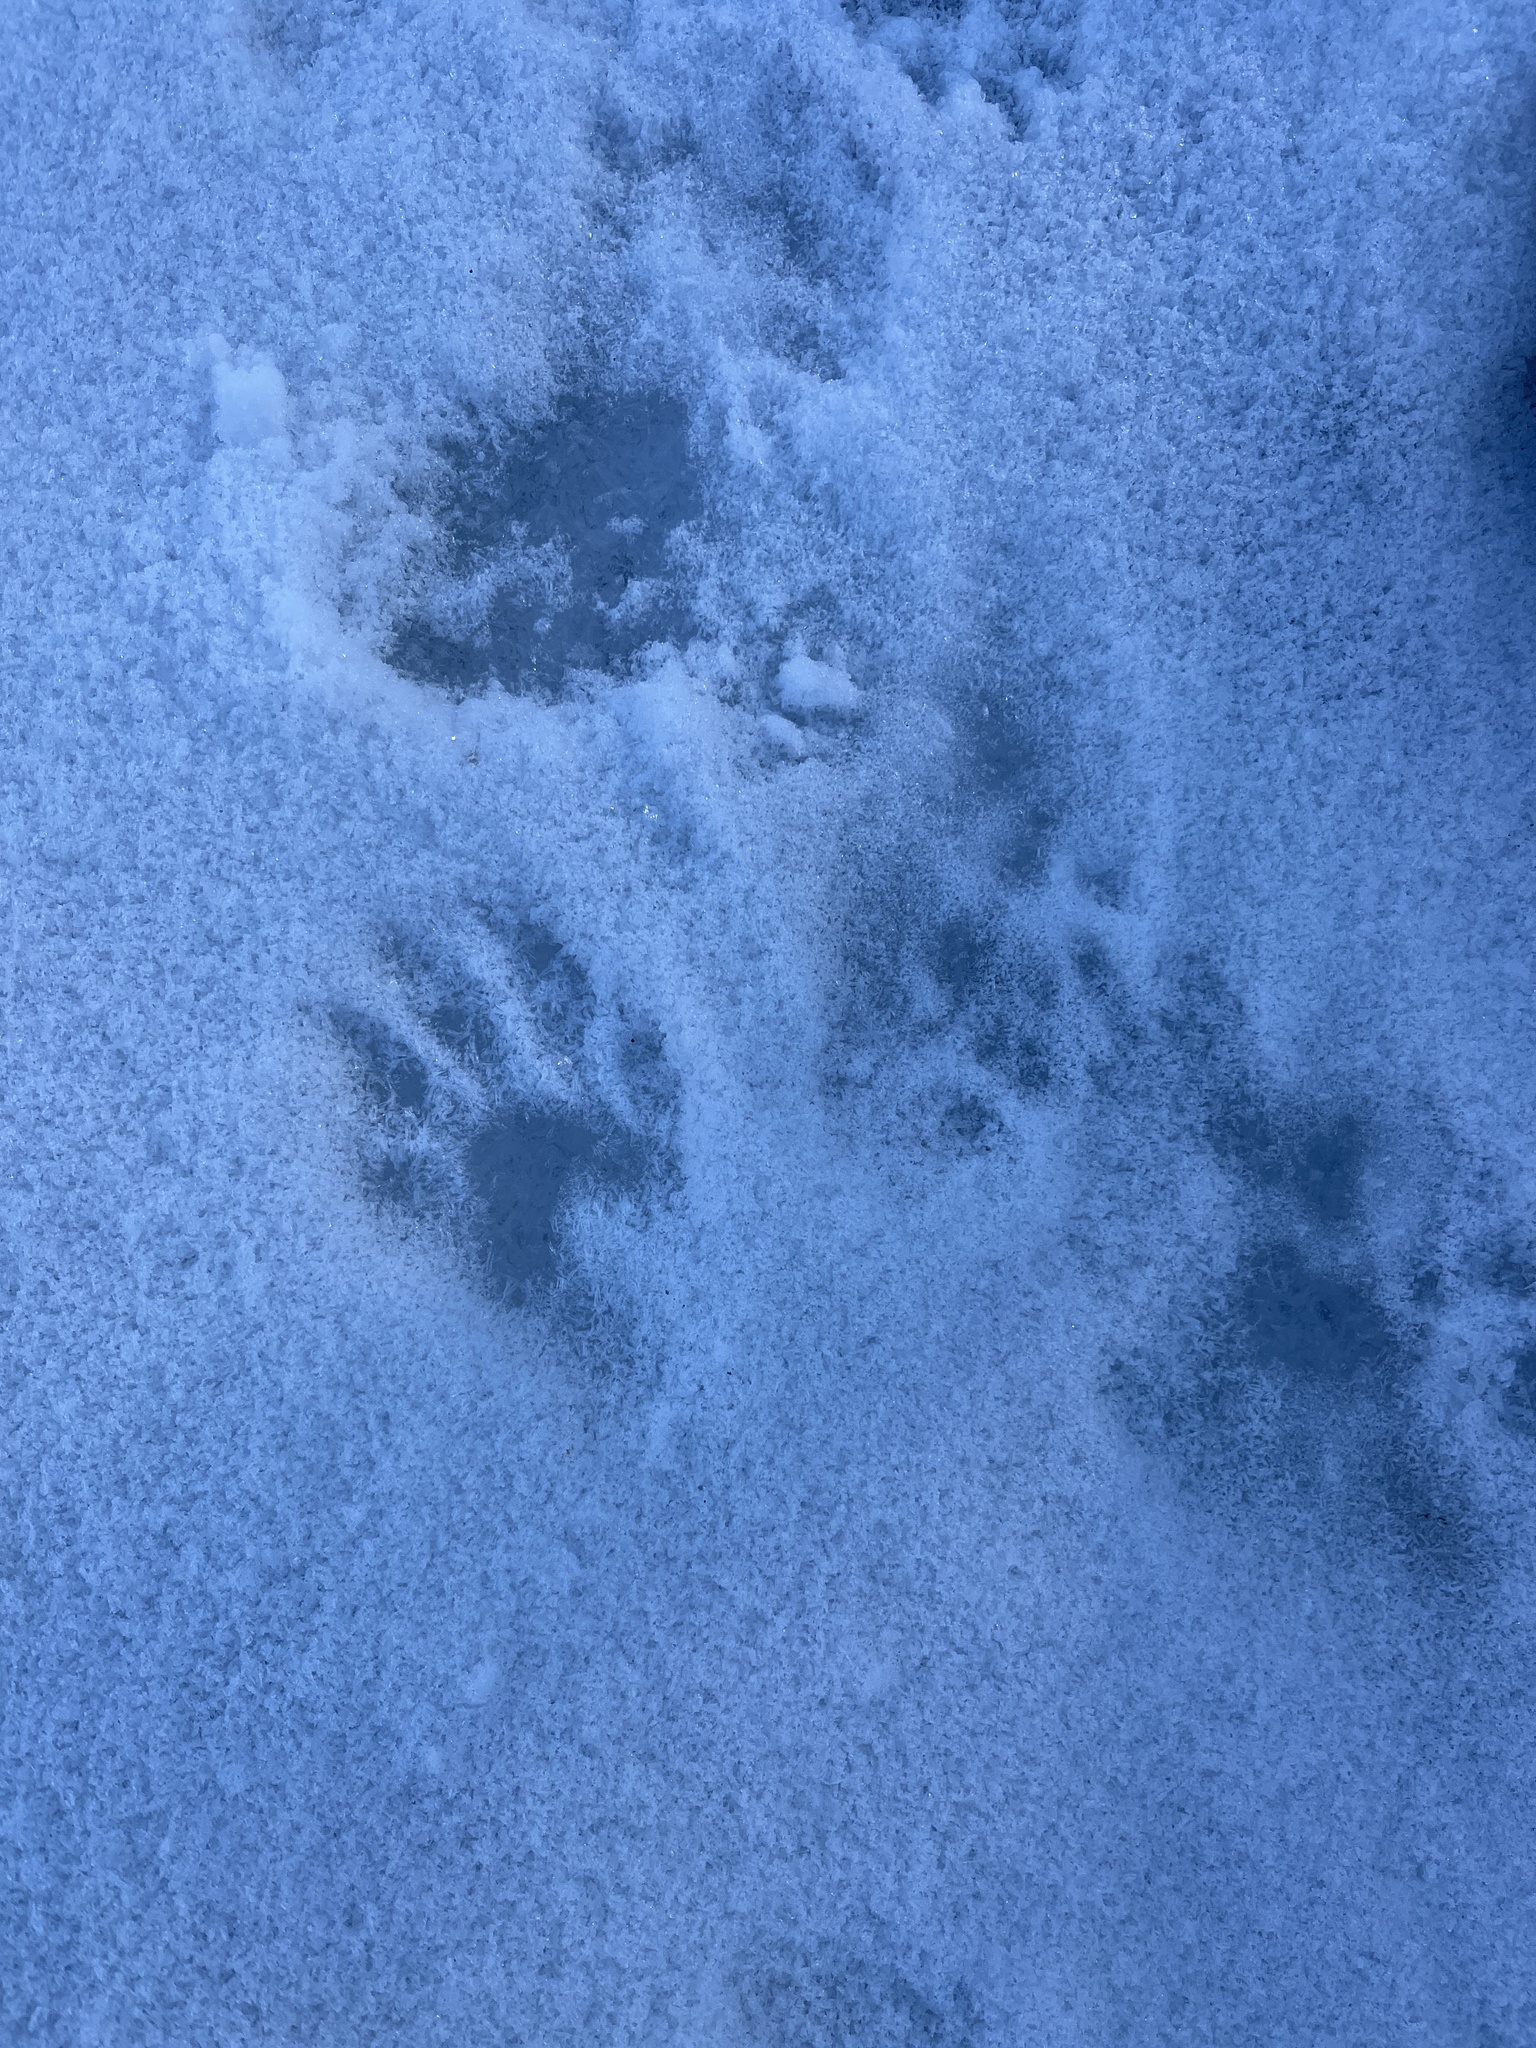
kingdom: Animalia
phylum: Chordata
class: Mammalia
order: Carnivora
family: Procyonidae
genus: Procyon
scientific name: Procyon lotor
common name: Raccoon
